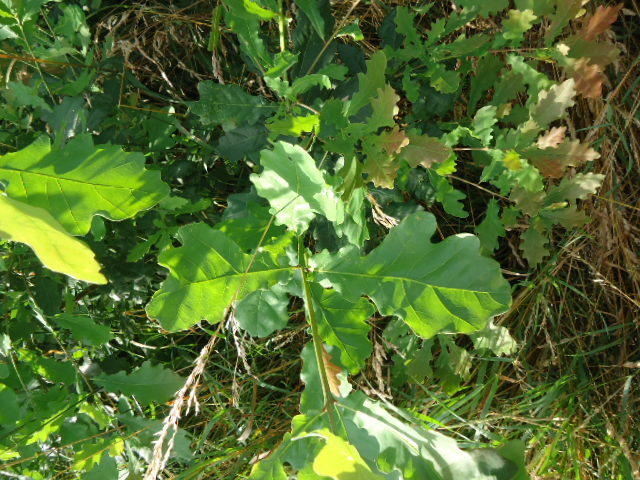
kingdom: Plantae
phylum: Tracheophyta
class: Magnoliopsida
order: Fagales
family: Fagaceae
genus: Quercus
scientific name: Quercus robur
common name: Pedunculate oak
